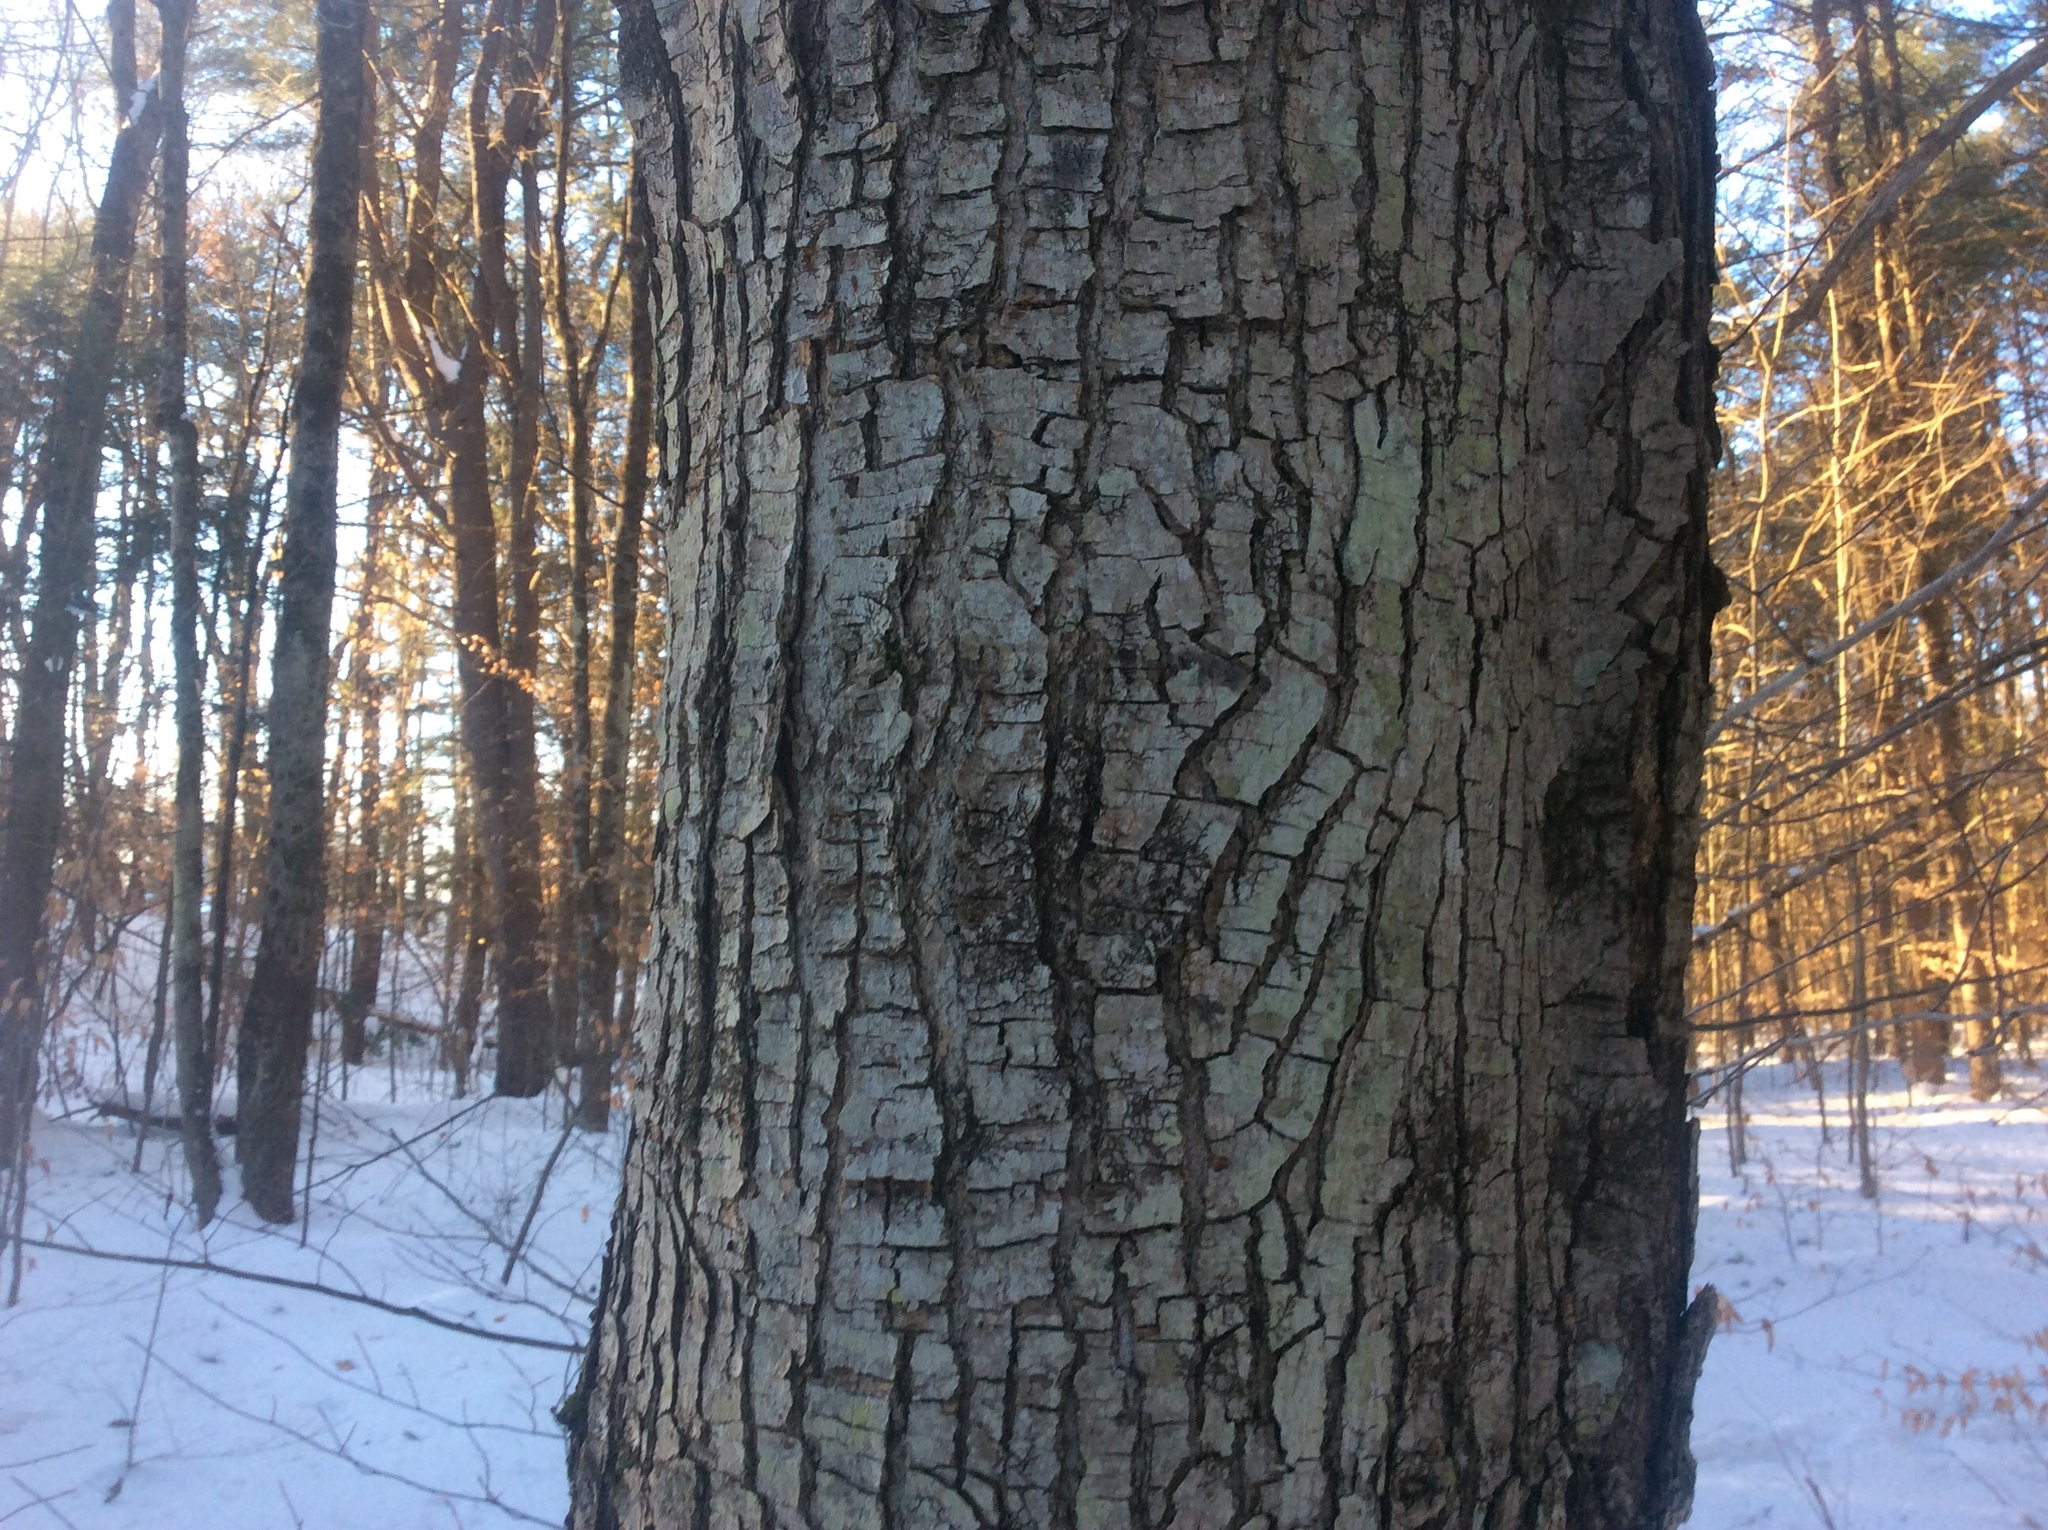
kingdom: Plantae
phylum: Tracheophyta
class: Magnoliopsida
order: Sapindales
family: Sapindaceae
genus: Acer
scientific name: Acer rubrum
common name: Red maple
